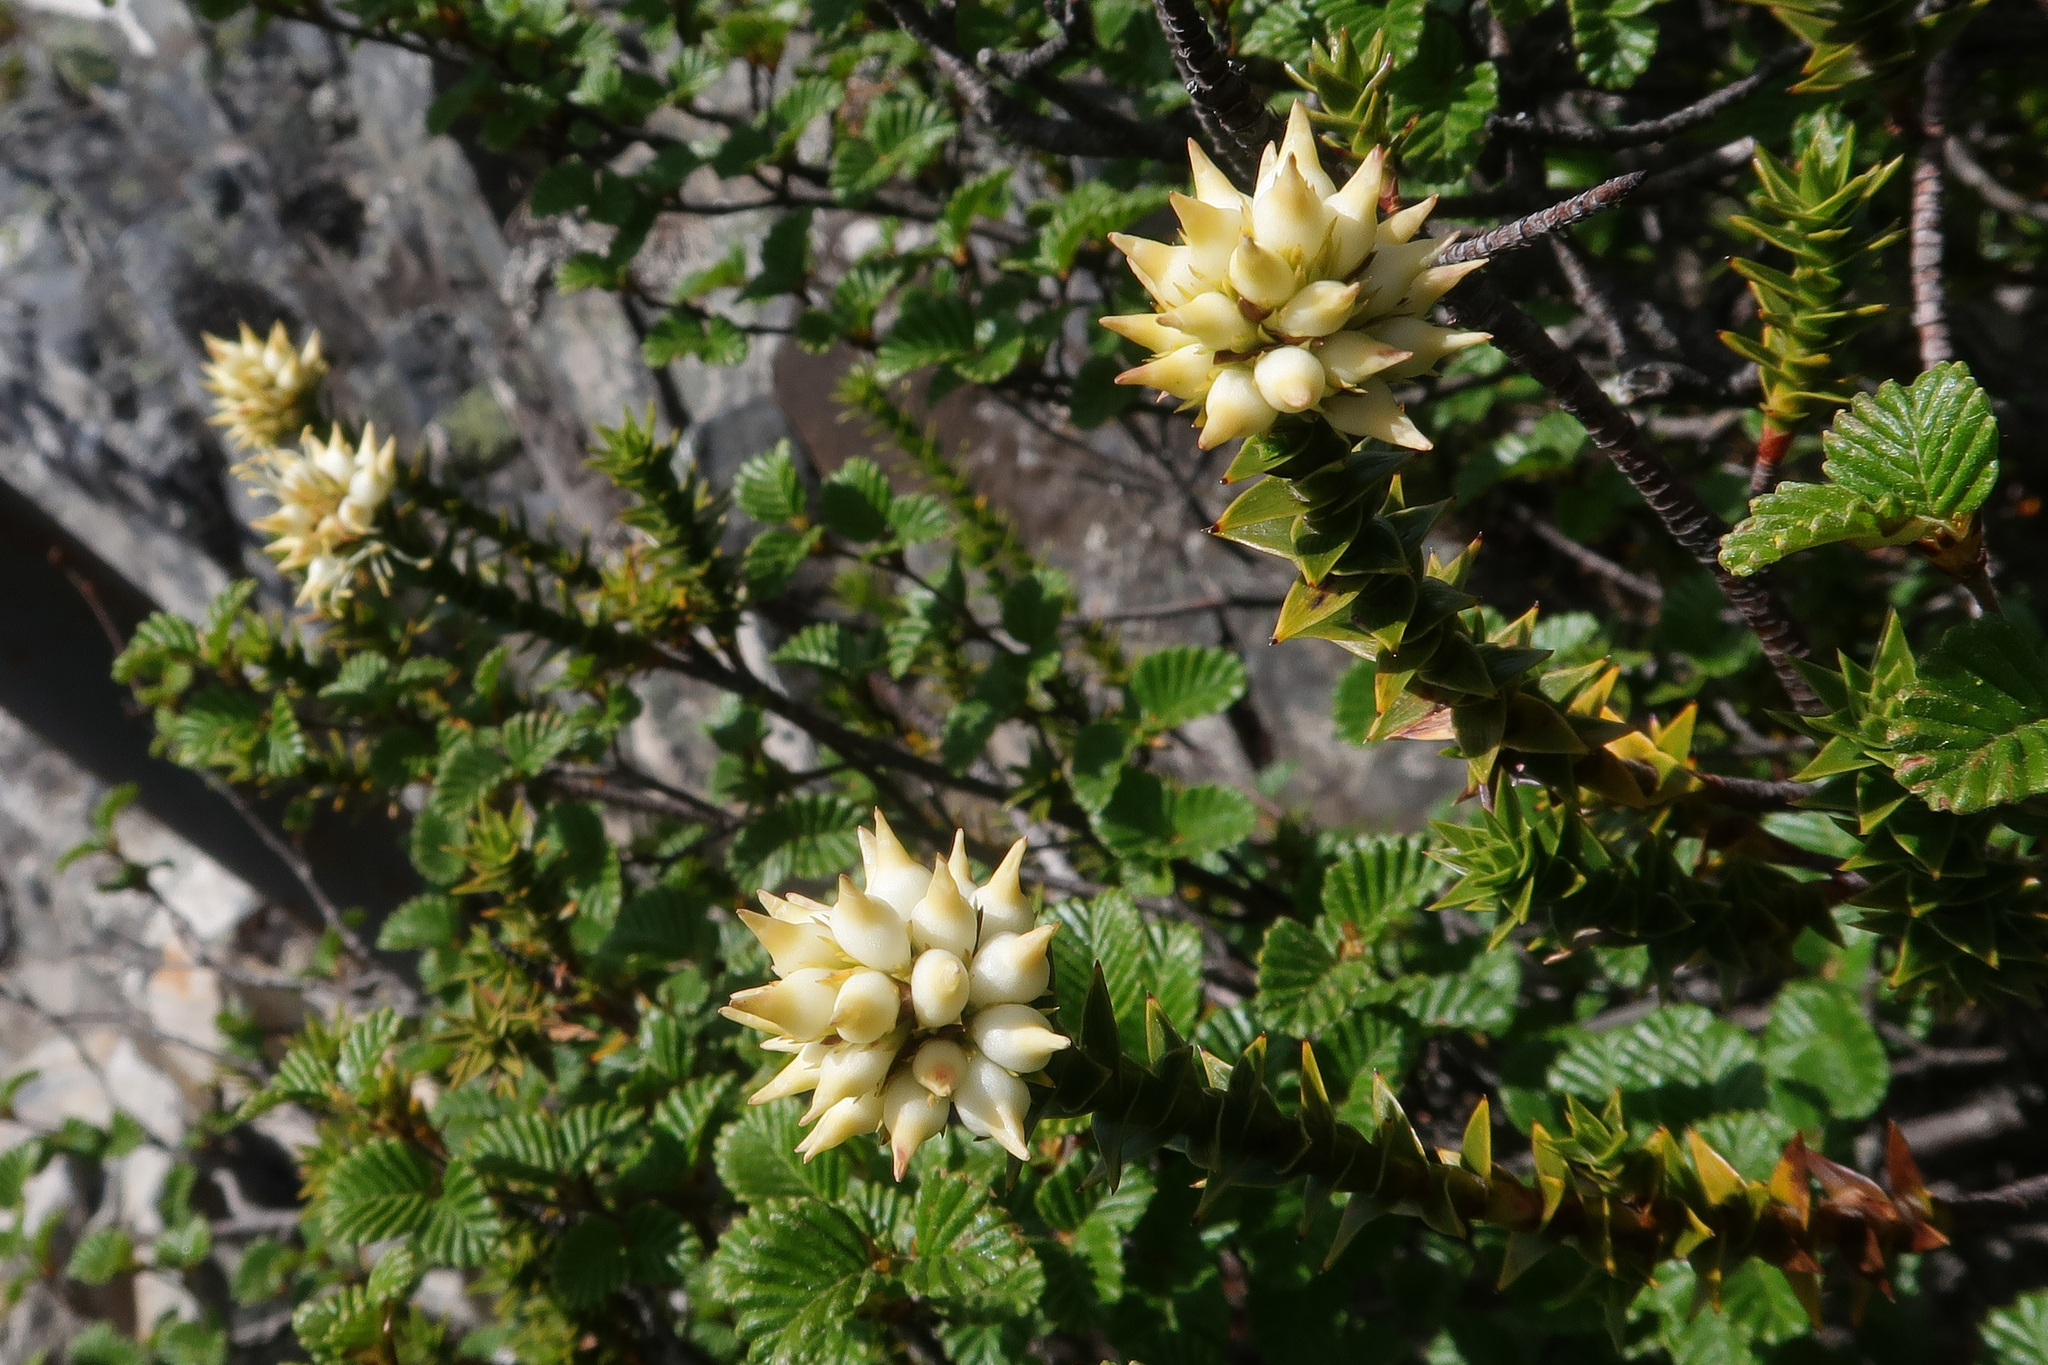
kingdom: Plantae
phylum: Tracheophyta
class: Magnoliopsida
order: Ericales
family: Ericaceae
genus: Dracophyllum
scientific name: Dracophyllum sprengelioides
